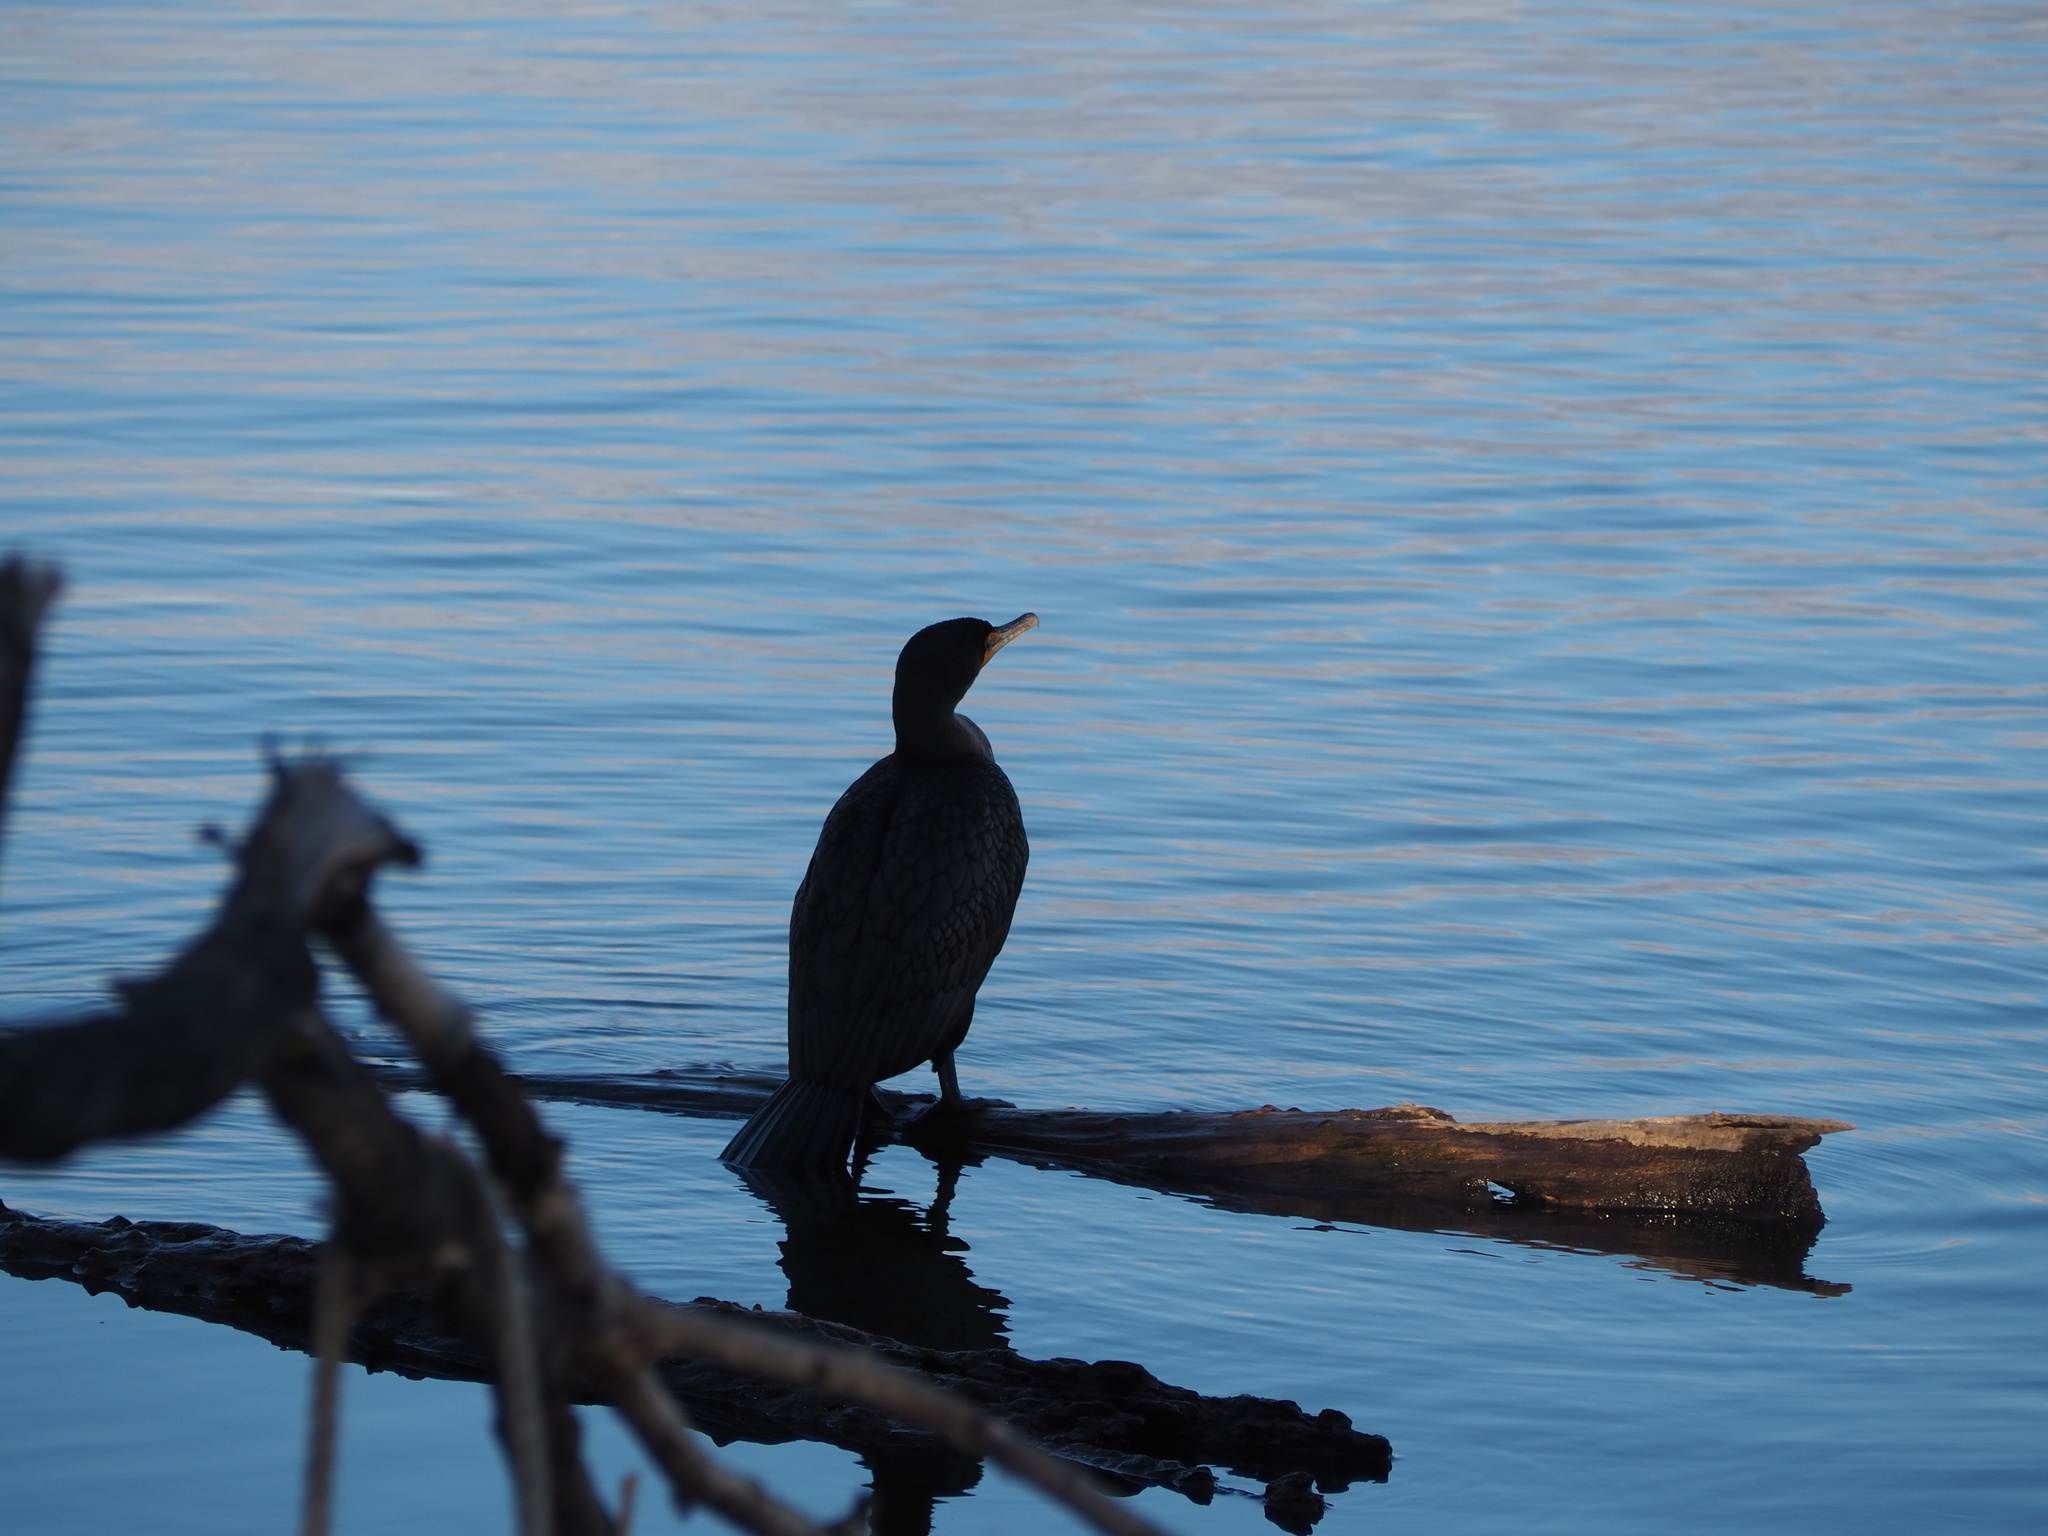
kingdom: Animalia
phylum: Chordata
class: Aves
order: Suliformes
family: Phalacrocoracidae
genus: Phalacrocorax
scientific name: Phalacrocorax auritus
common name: Double-crested cormorant
